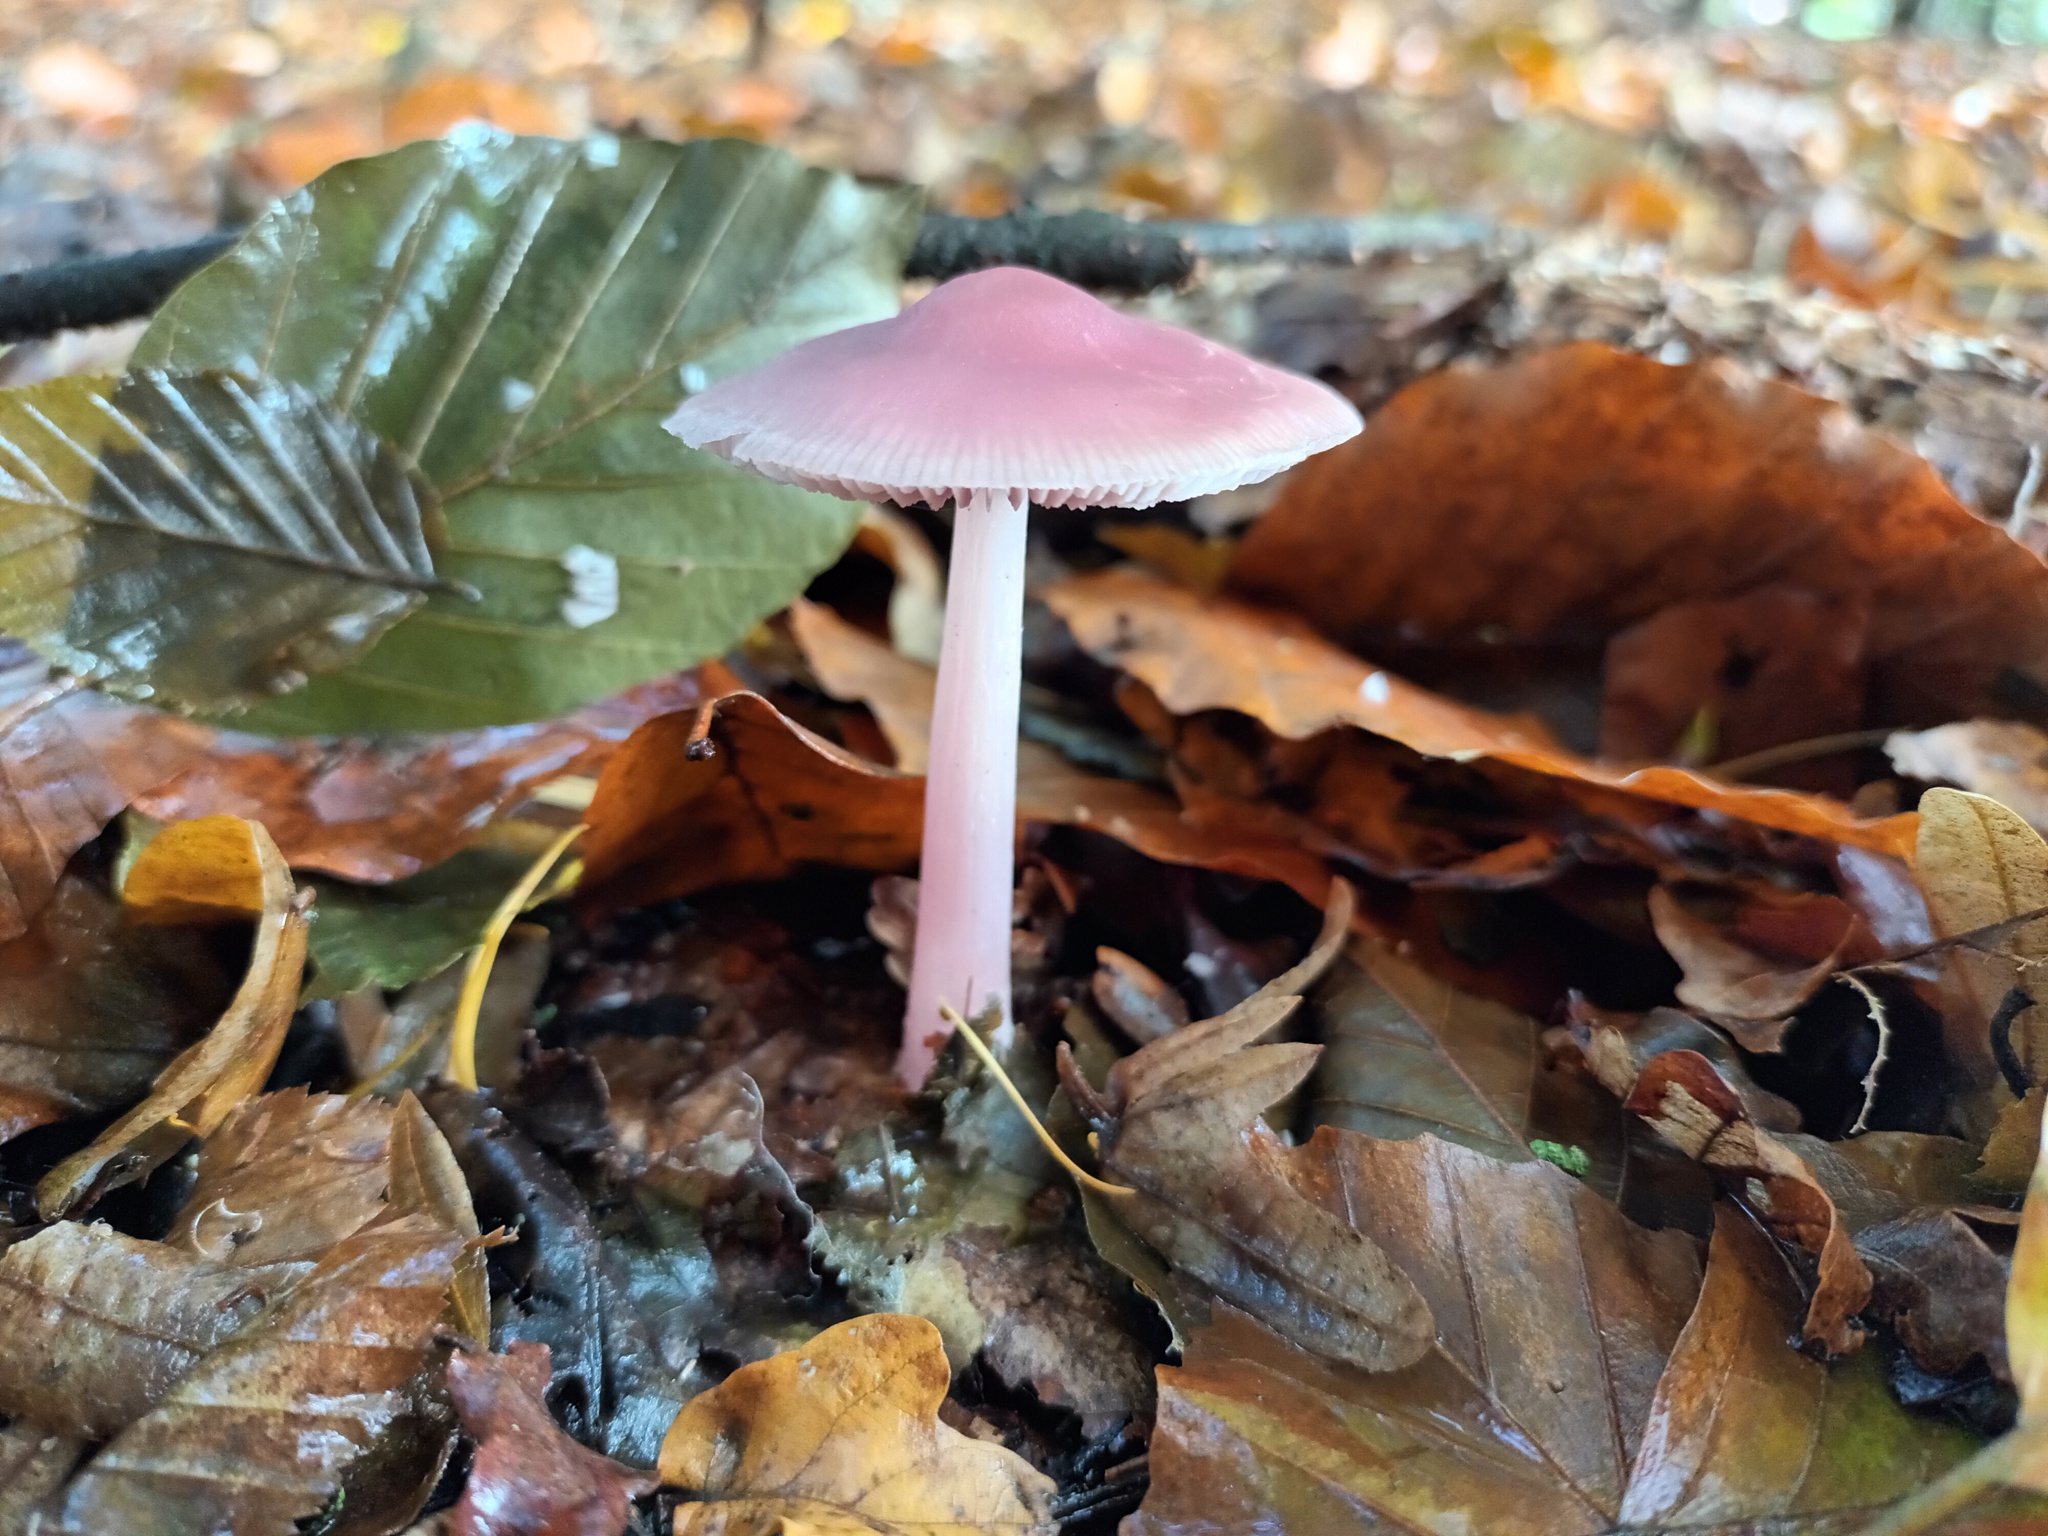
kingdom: Fungi
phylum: Basidiomycota
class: Agaricomycetes
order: Agaricales
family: Mycenaceae
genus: Mycena
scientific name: Mycena rosea
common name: Rosy bonnet
